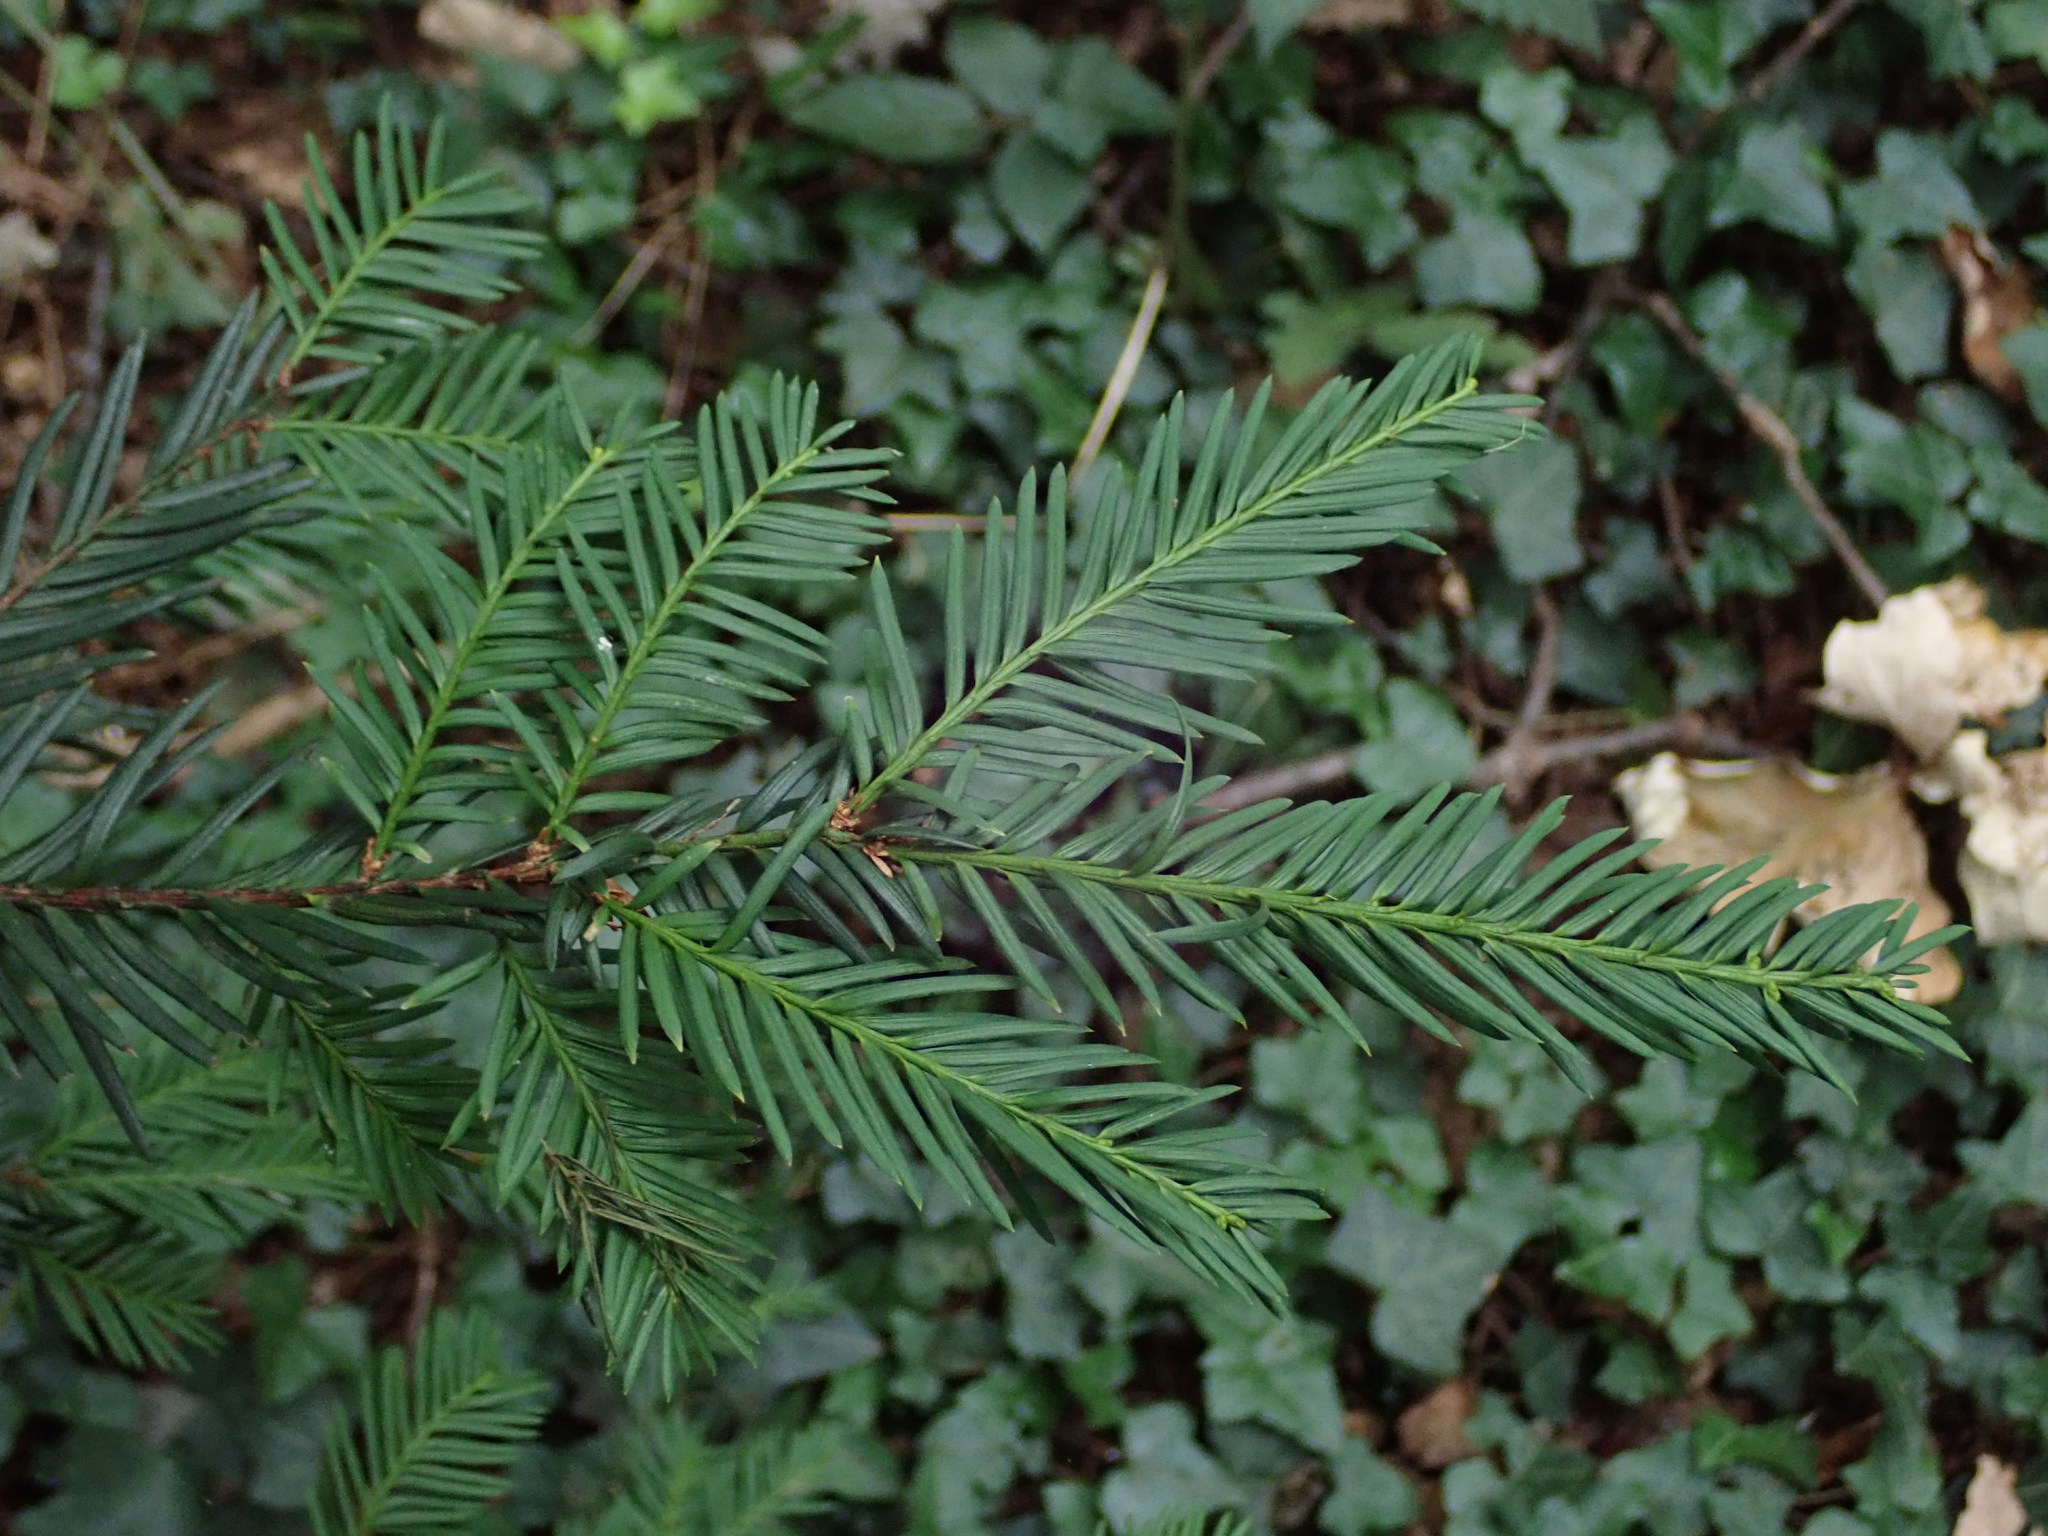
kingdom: Plantae
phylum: Tracheophyta
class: Pinopsida
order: Pinales
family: Taxaceae
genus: Taxus
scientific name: Taxus baccata
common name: Yew
